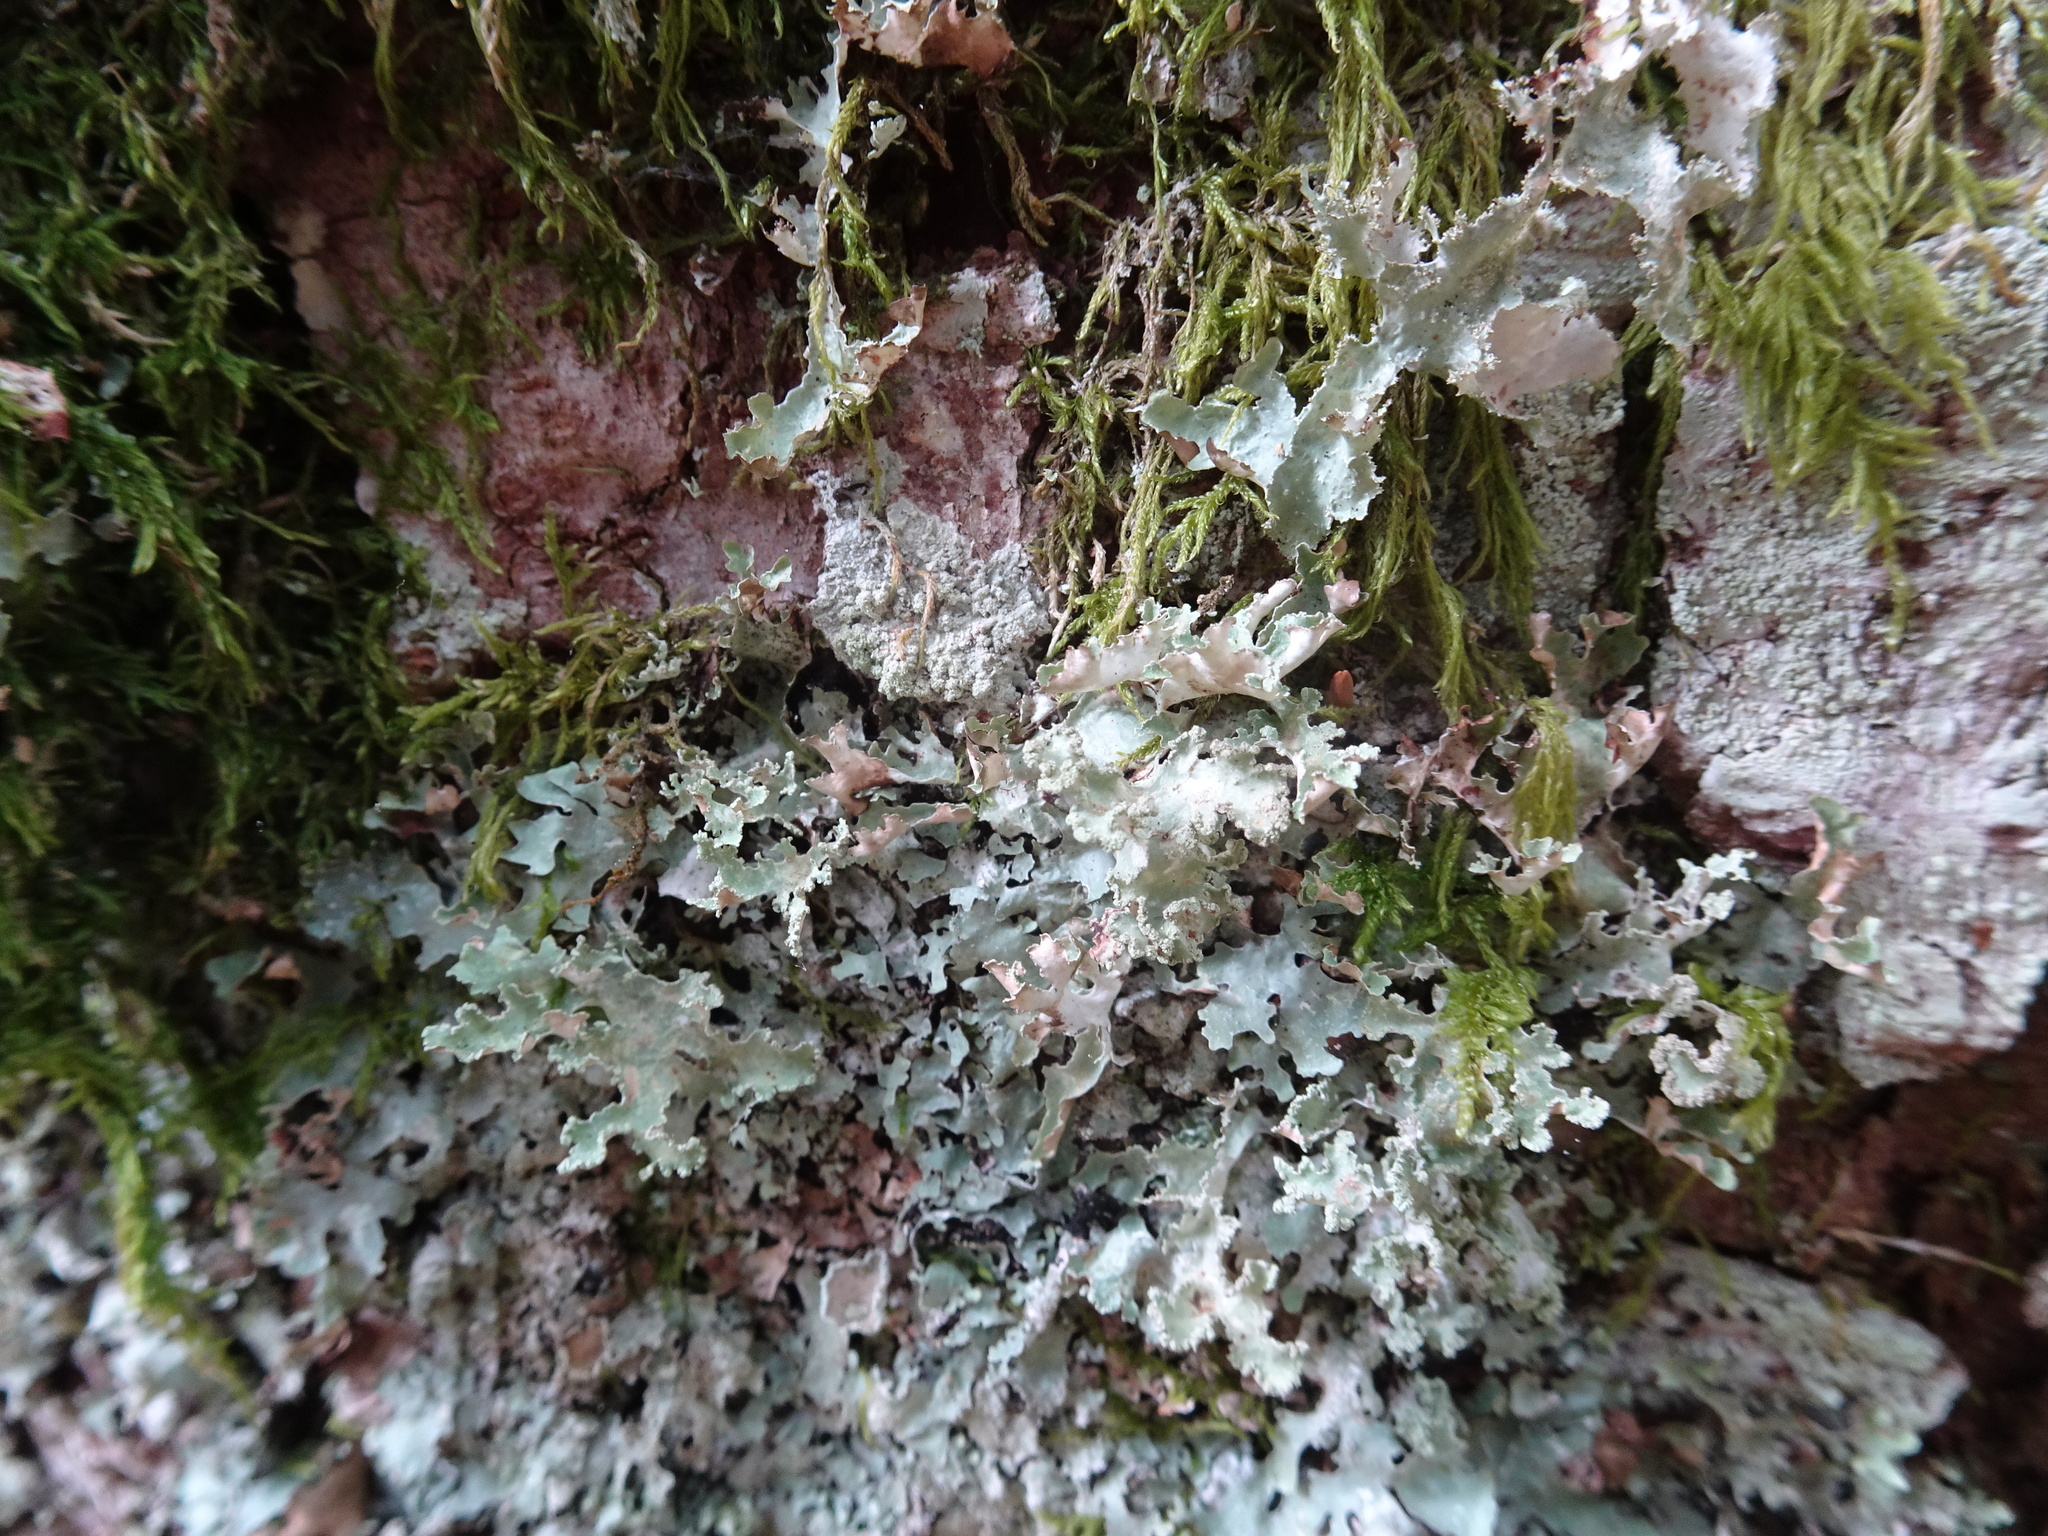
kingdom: Fungi
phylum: Ascomycota
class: Lecanoromycetes
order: Lecanorales
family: Parmeliaceae
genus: Platismatia
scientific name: Platismatia glauca
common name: Varied rag lichen
